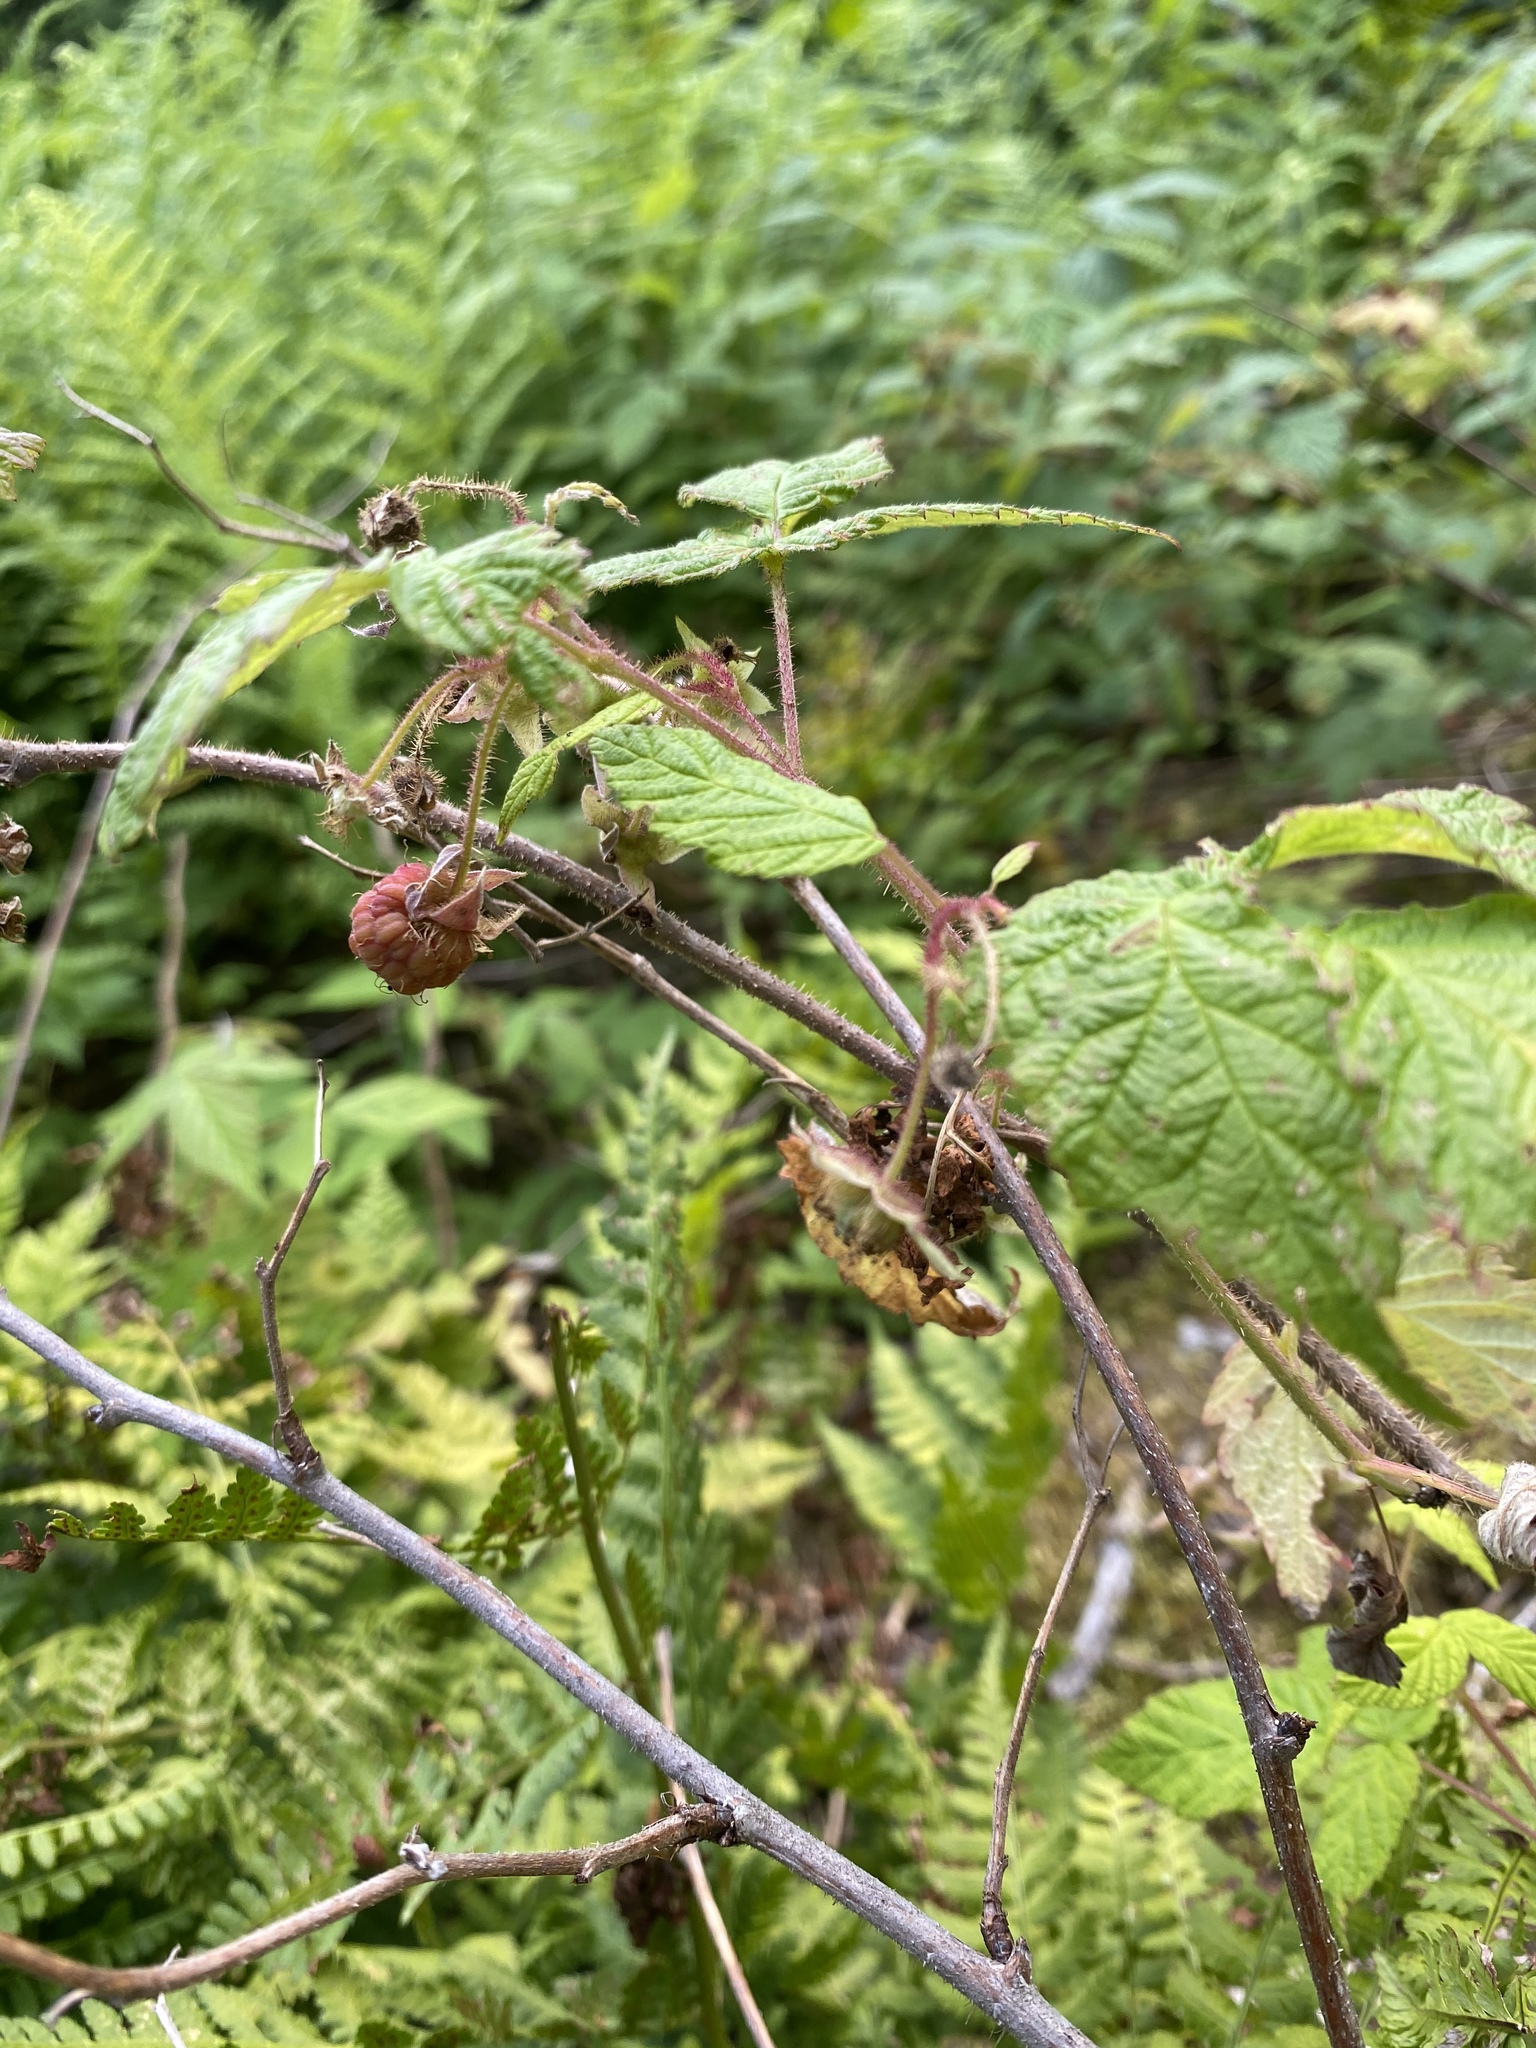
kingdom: Plantae
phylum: Tracheophyta
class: Magnoliopsida
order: Rosales
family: Rosaceae
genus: Rubus
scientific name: Rubus idaeus
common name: Raspberry
